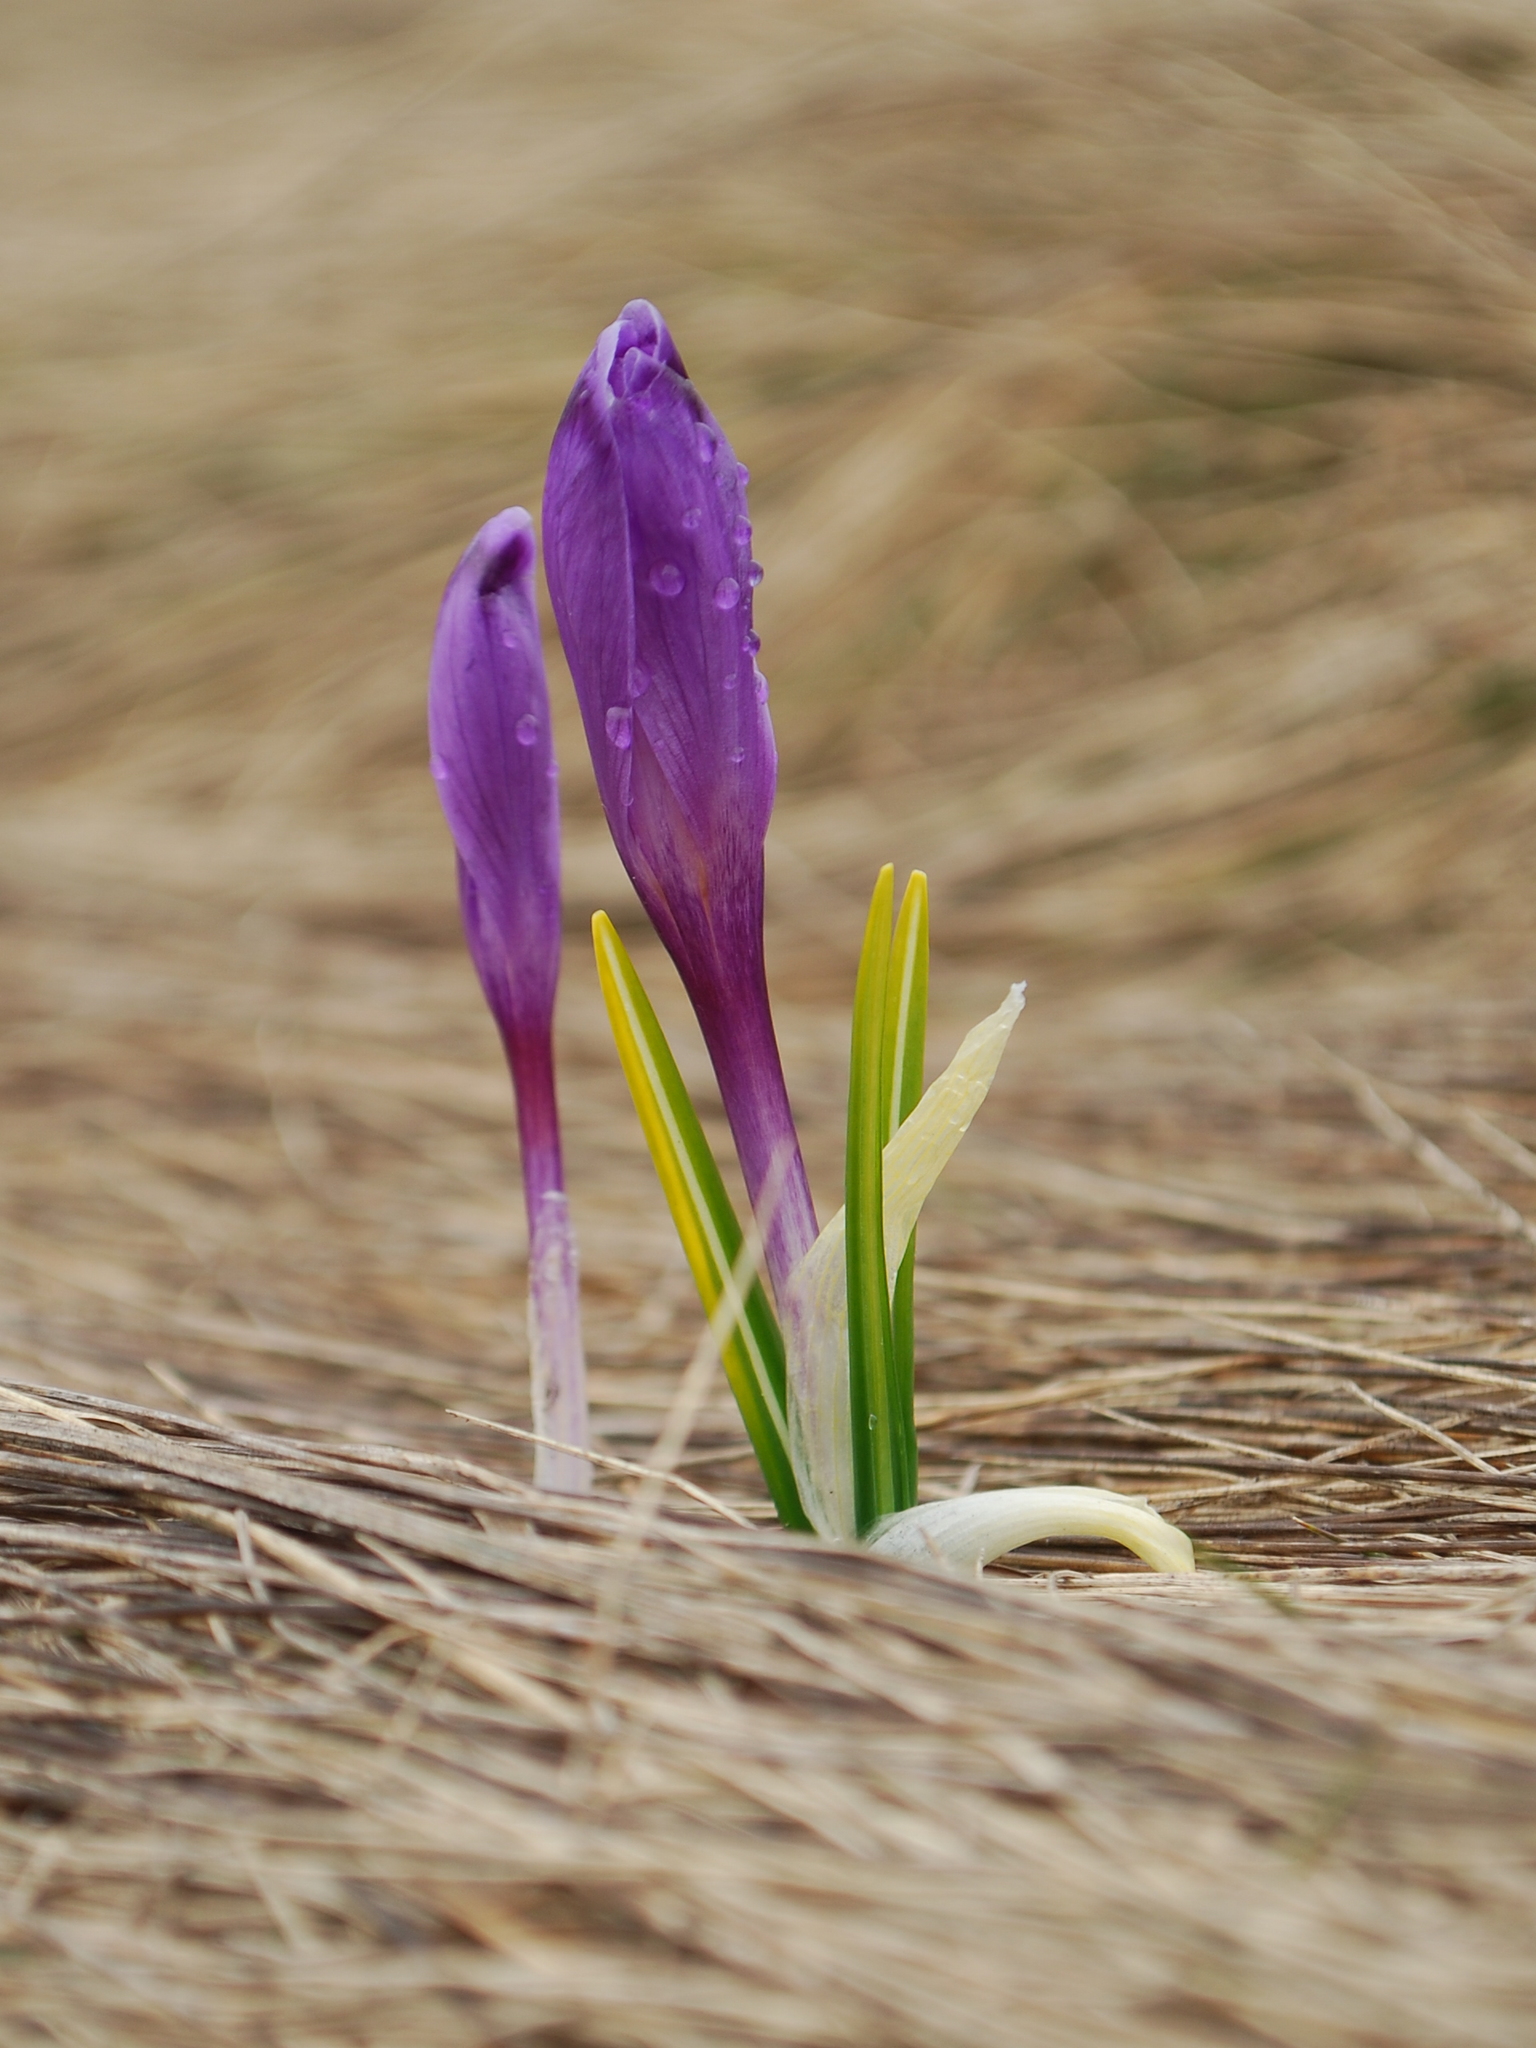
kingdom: Plantae
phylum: Tracheophyta
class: Liliopsida
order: Asparagales
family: Iridaceae
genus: Crocus
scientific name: Crocus heuffelianus
